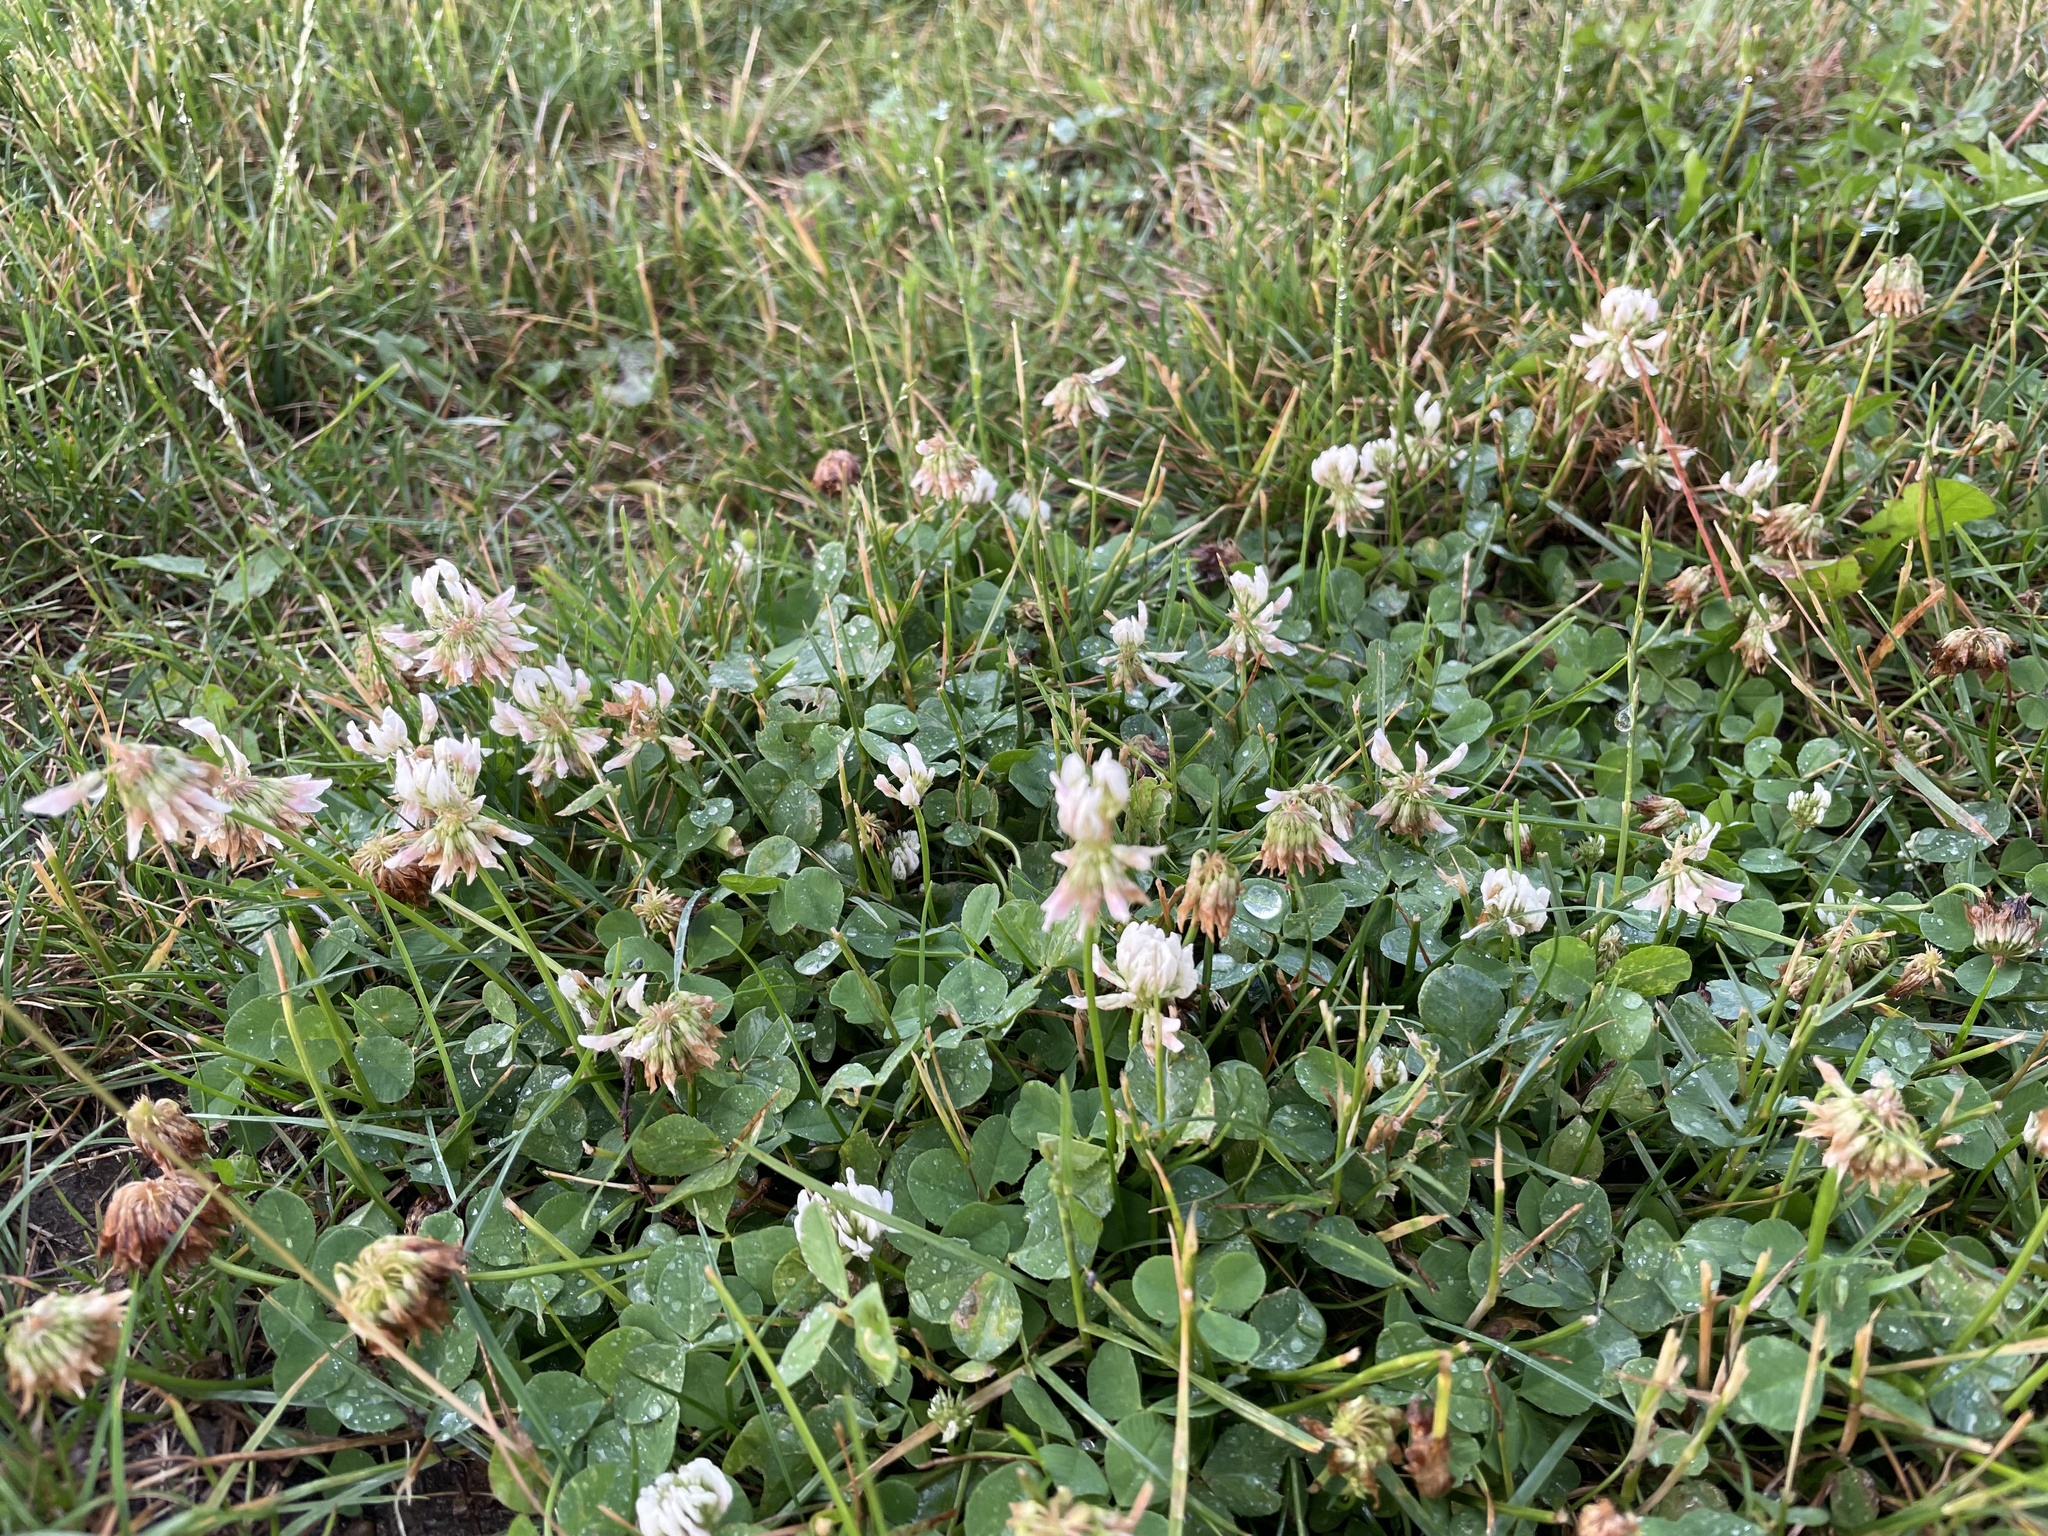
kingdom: Plantae
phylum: Tracheophyta
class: Magnoliopsida
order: Fabales
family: Fabaceae
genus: Trifolium
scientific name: Trifolium repens
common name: White clover
